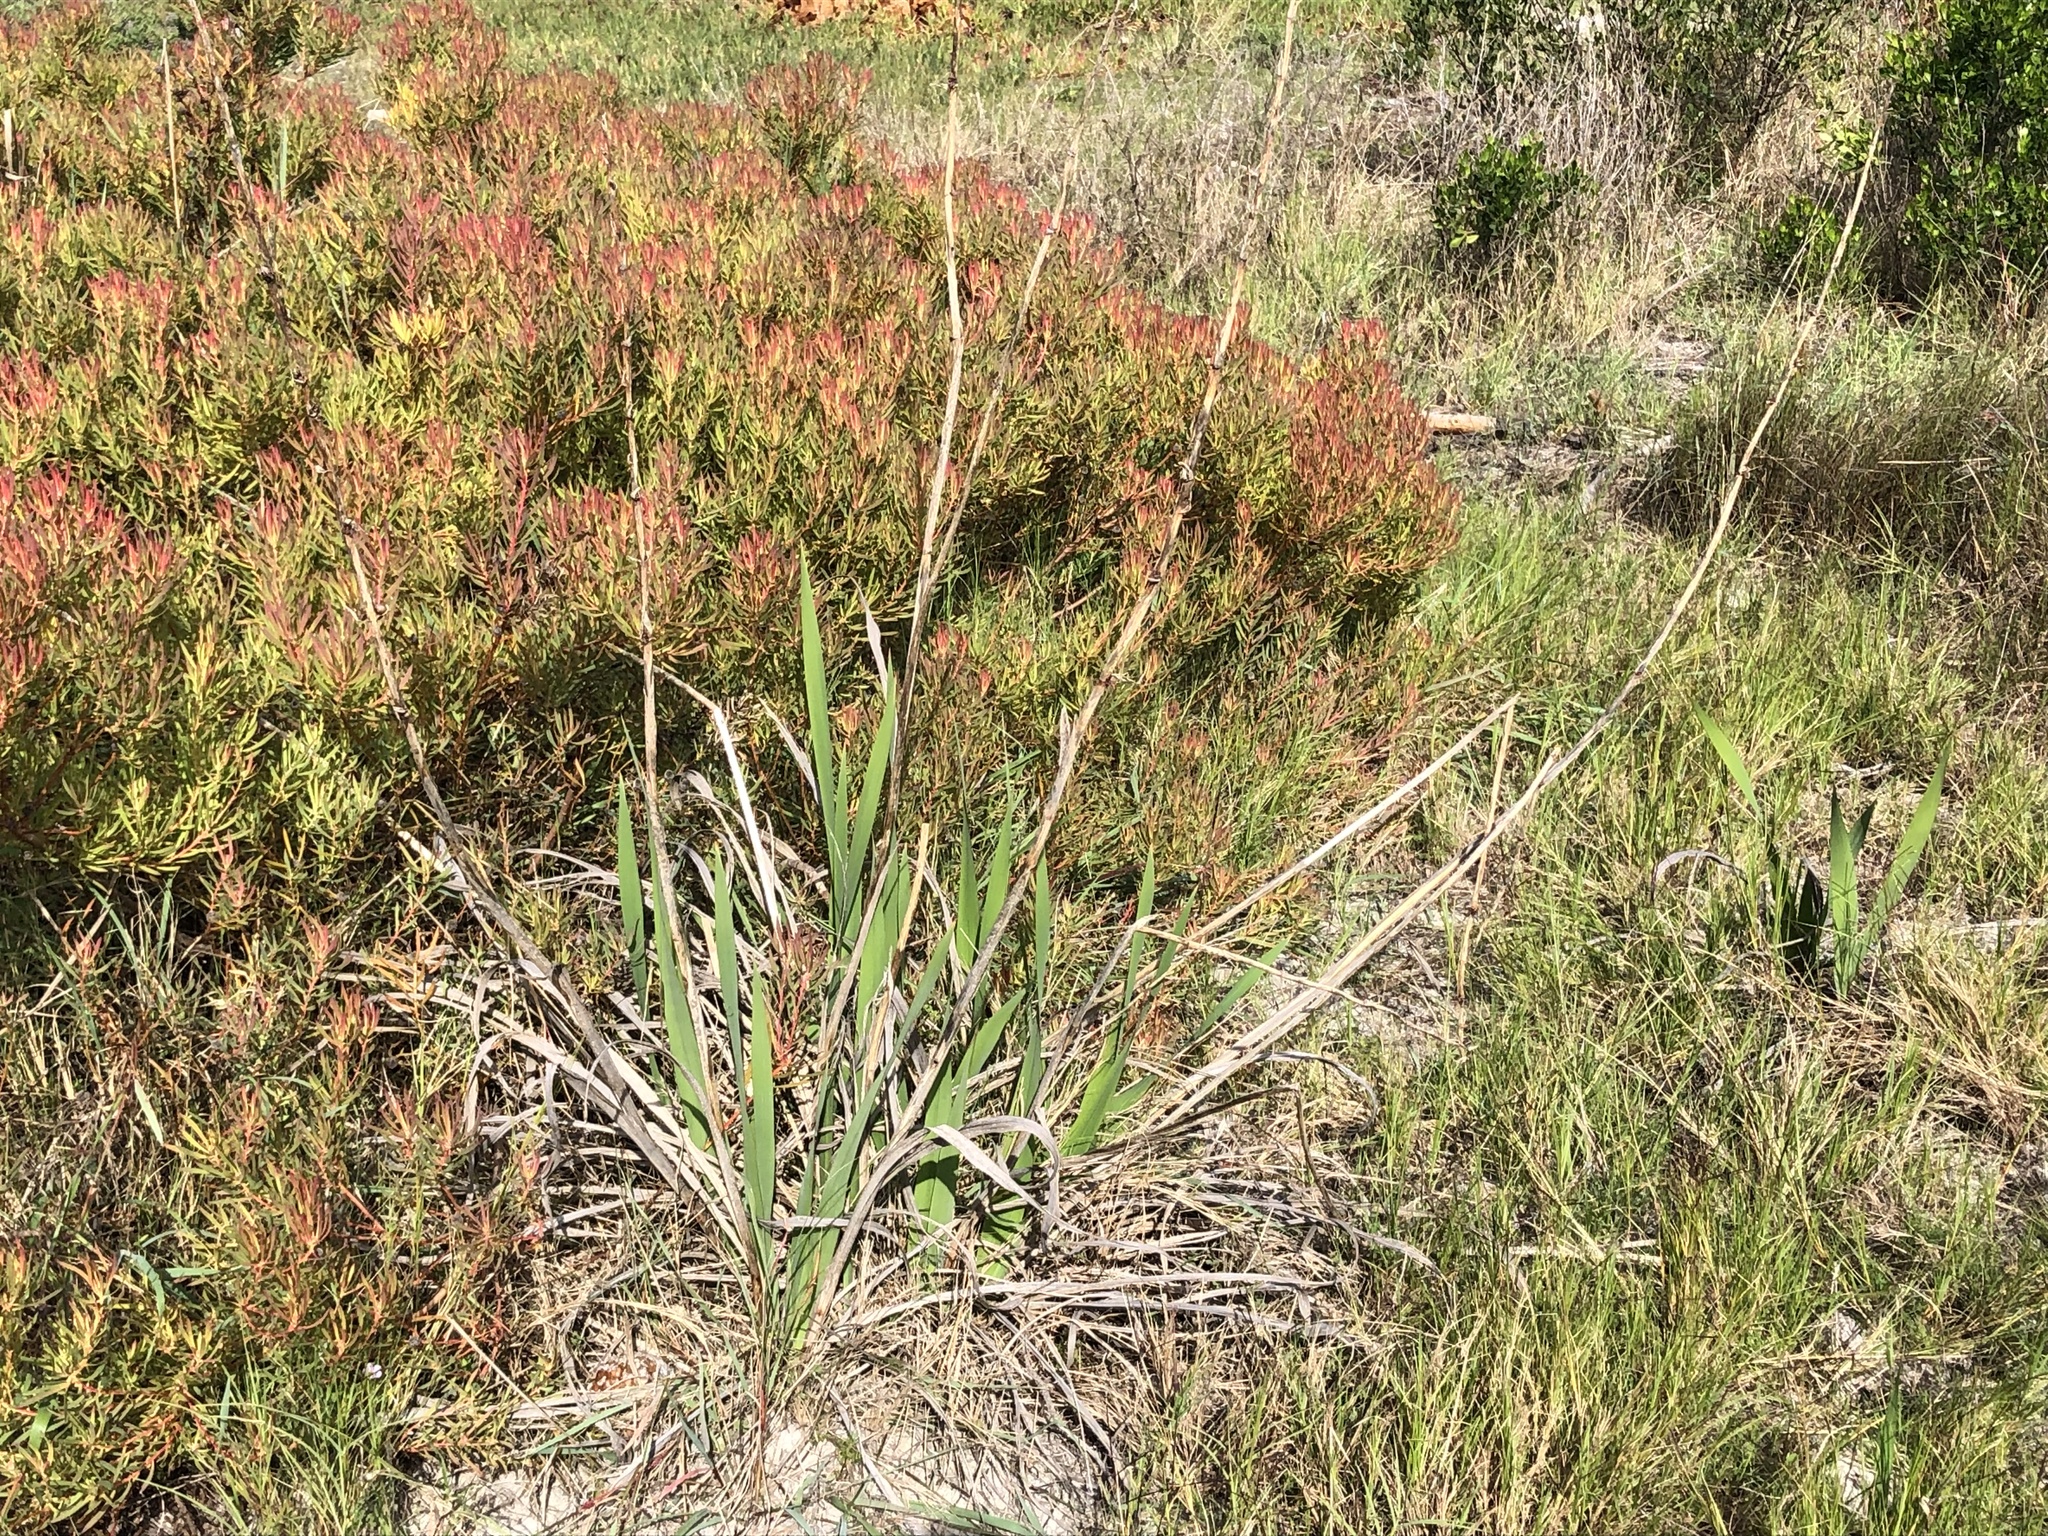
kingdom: Plantae
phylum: Tracheophyta
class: Liliopsida
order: Asparagales
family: Iridaceae
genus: Watsonia
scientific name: Watsonia meriana
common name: Bulbil bugle-lily
